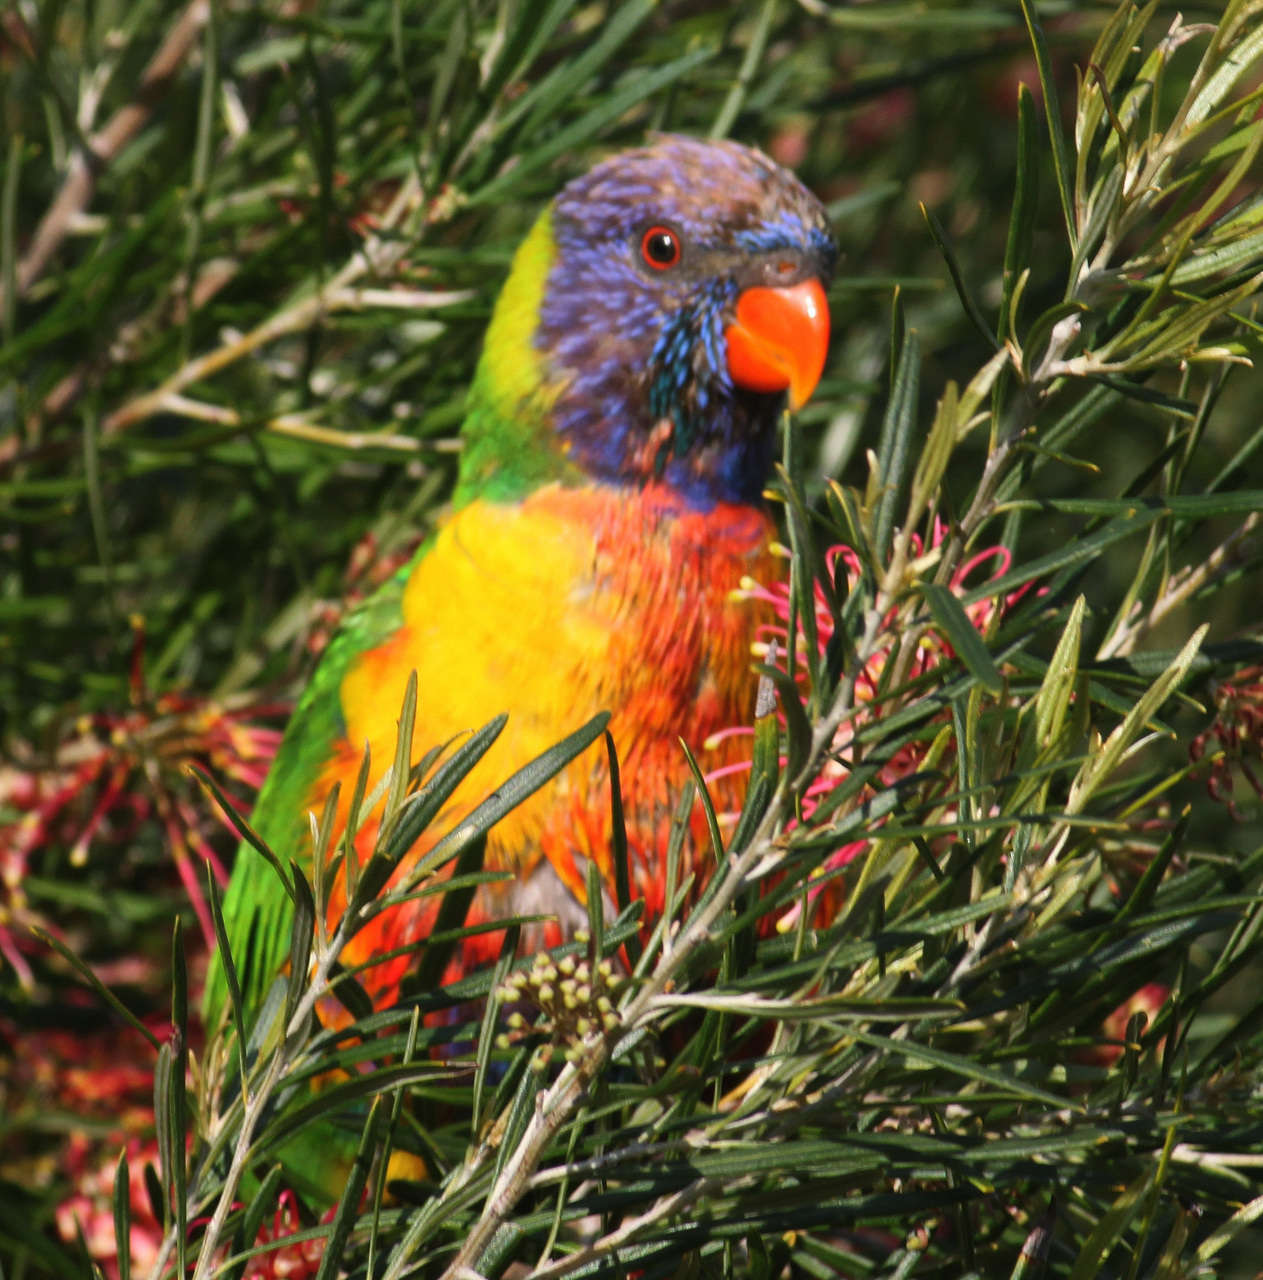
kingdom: Animalia
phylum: Chordata
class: Aves
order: Psittaciformes
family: Psittacidae
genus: Trichoglossus
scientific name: Trichoglossus haematodus
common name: Coconut lorikeet
